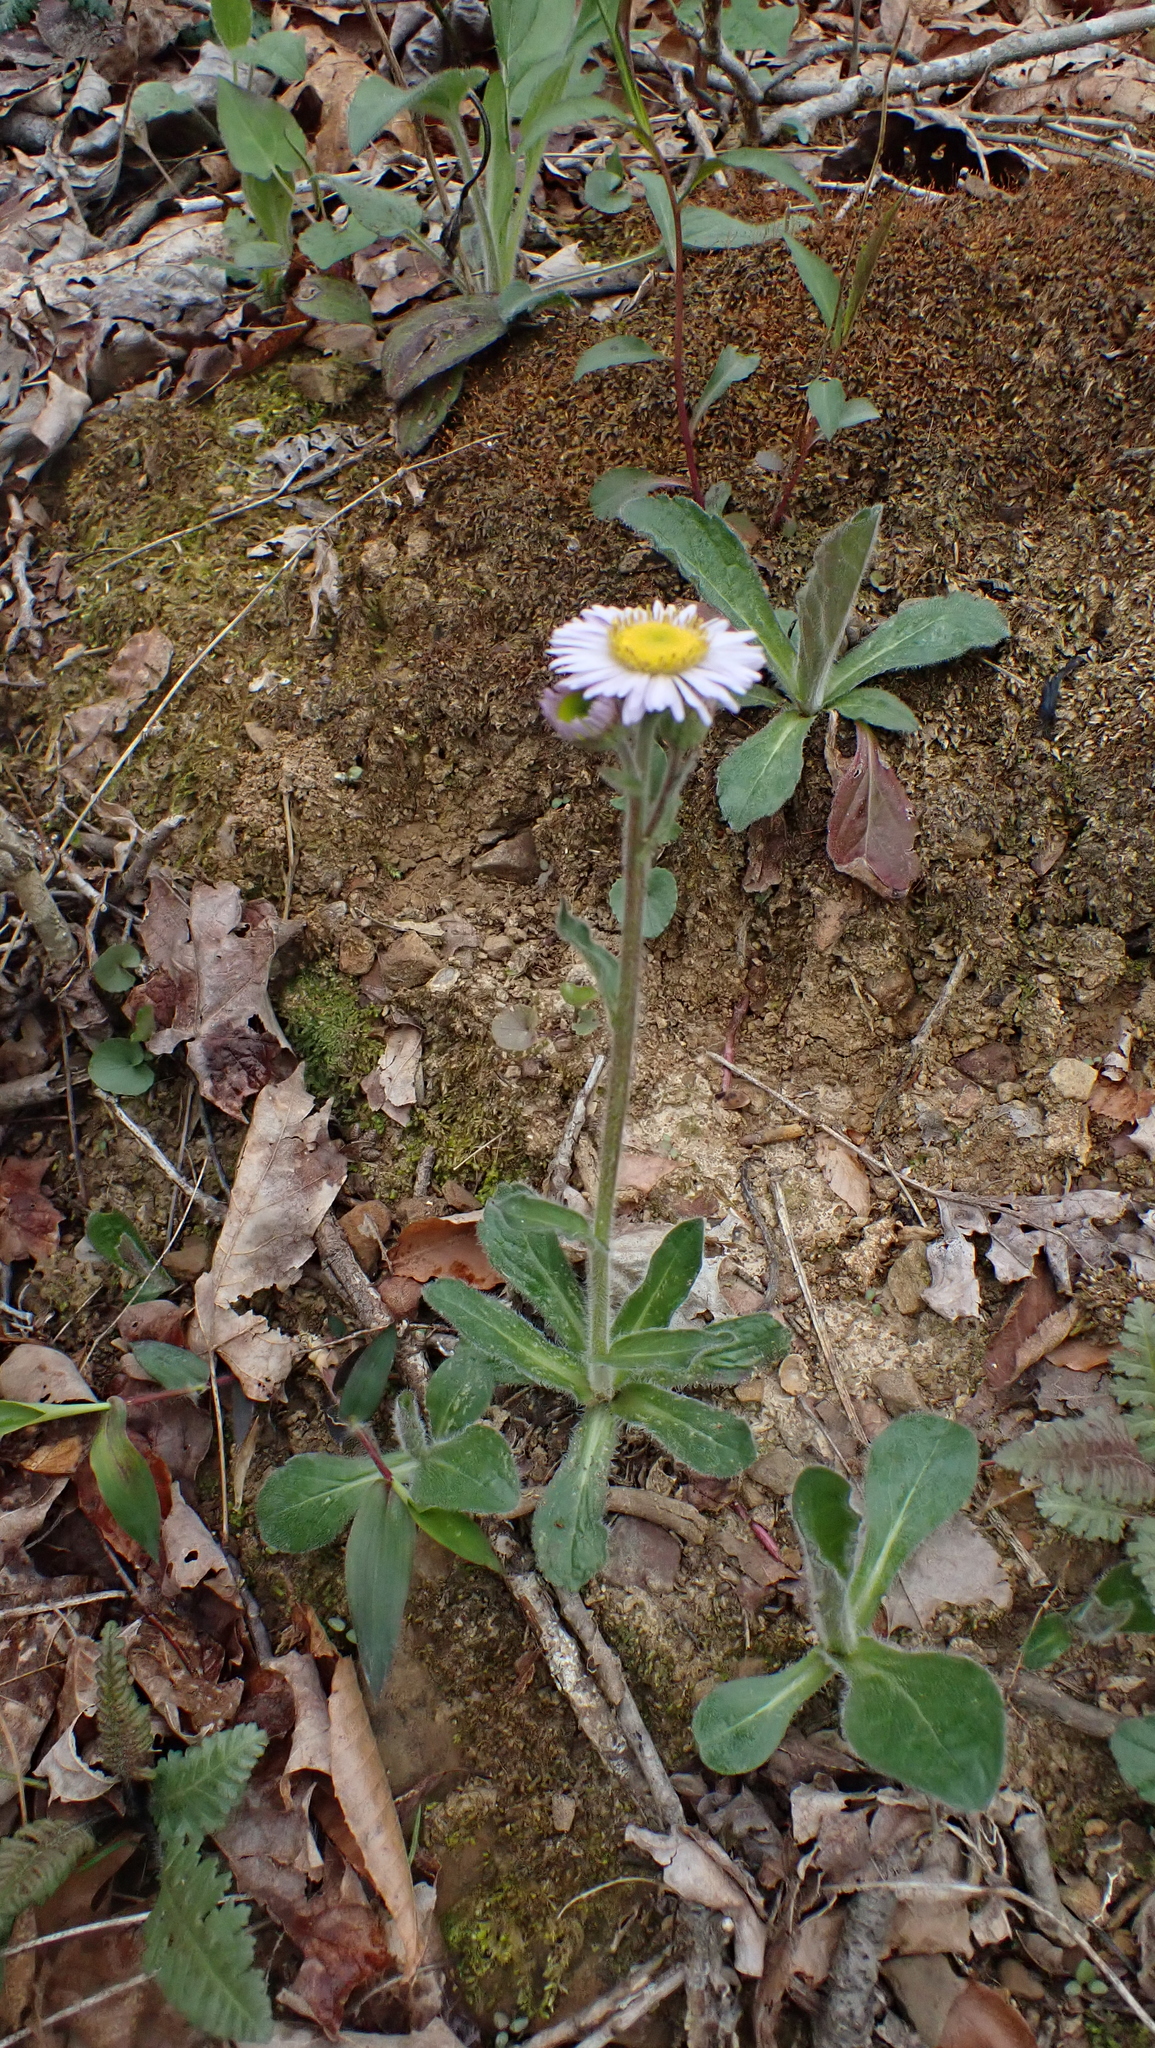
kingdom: Plantae
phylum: Tracheophyta
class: Magnoliopsida
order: Asterales
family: Asteraceae
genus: Erigeron
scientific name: Erigeron pulchellus
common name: Hairy fleabane
